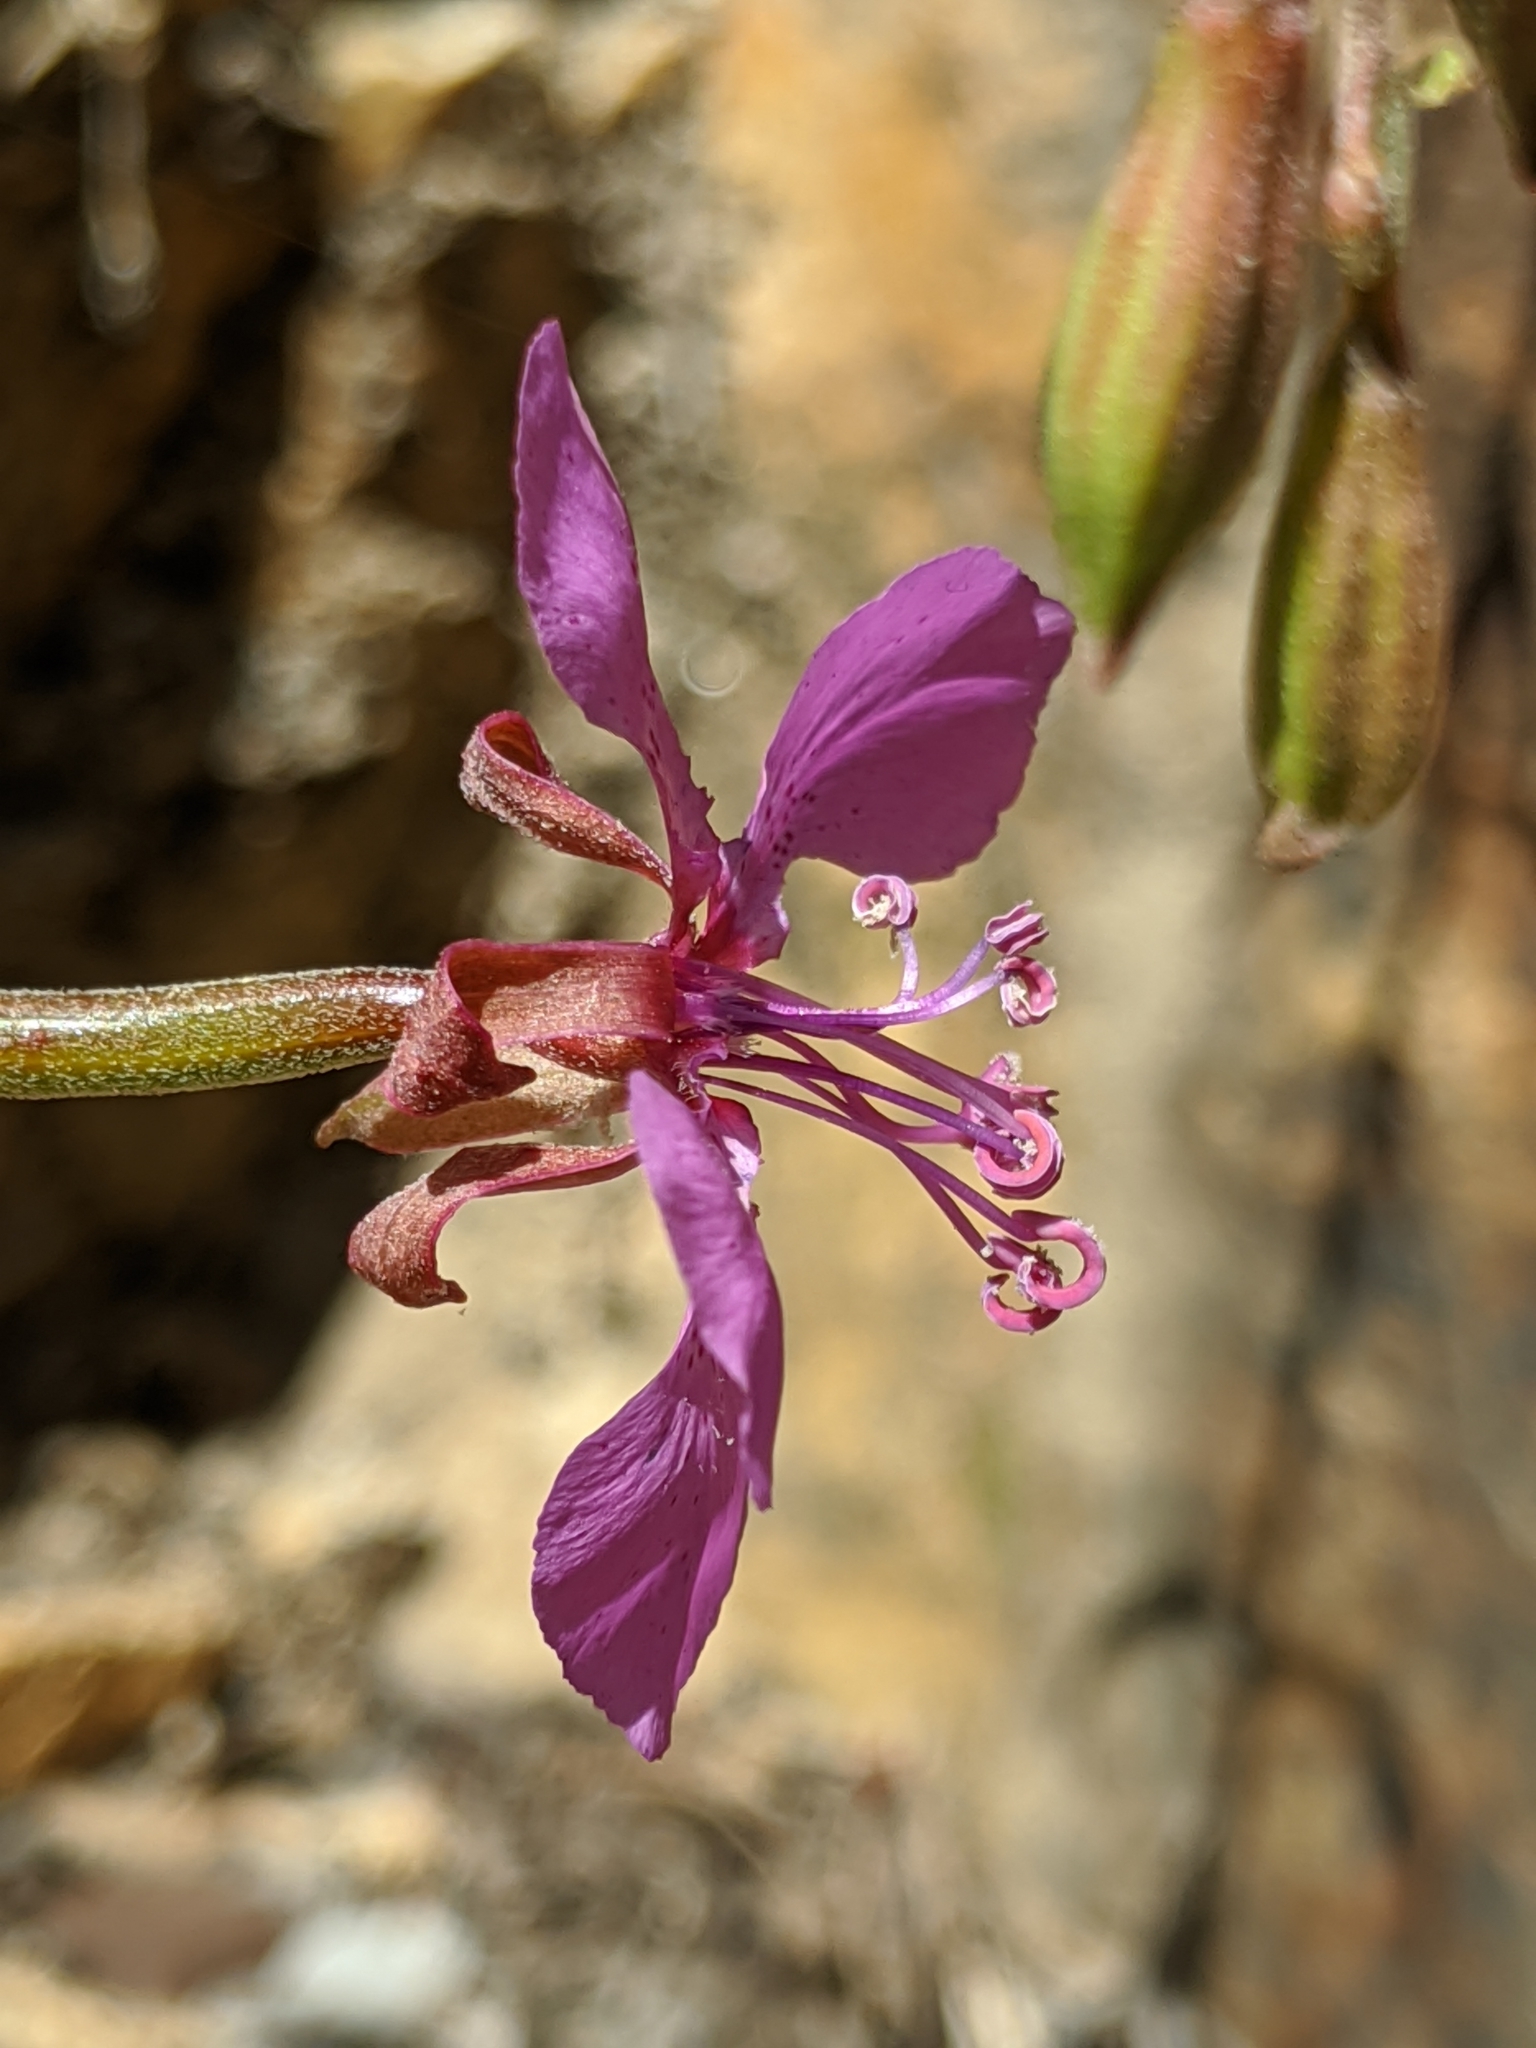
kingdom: Plantae
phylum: Tracheophyta
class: Magnoliopsida
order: Myrtales
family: Onagraceae
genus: Clarkia
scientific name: Clarkia rhomboidea
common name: Broadleaf clarkia
